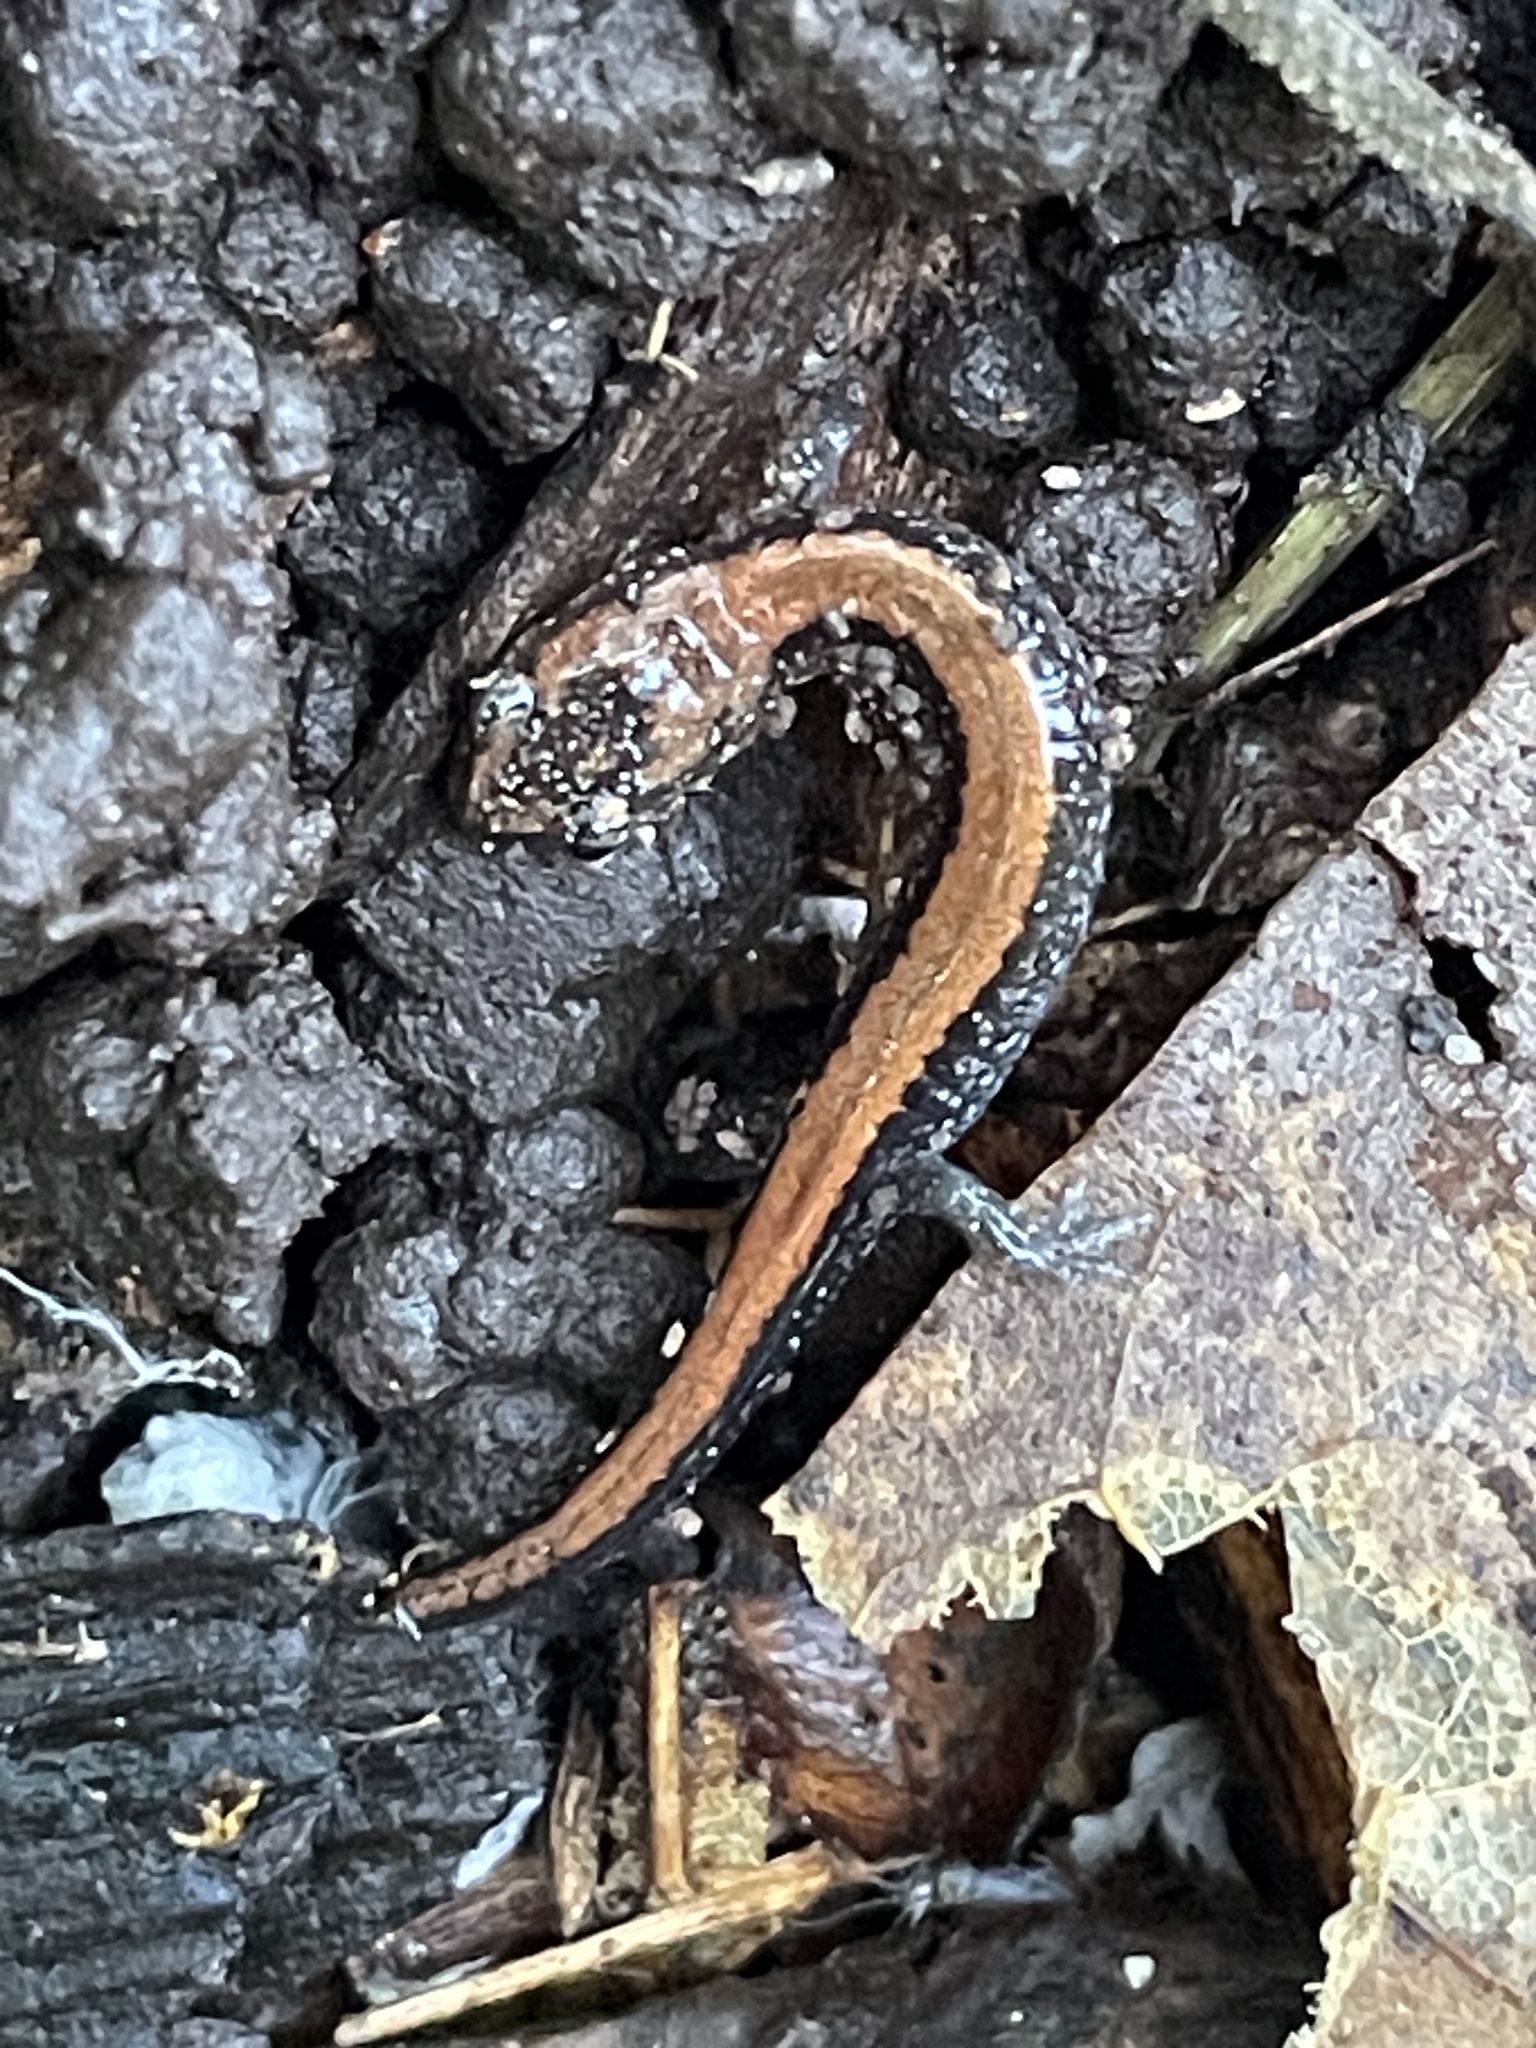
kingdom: Animalia
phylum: Chordata
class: Amphibia
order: Caudata
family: Plethodontidae
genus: Plethodon
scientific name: Plethodon cinereus
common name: Redback salamander
